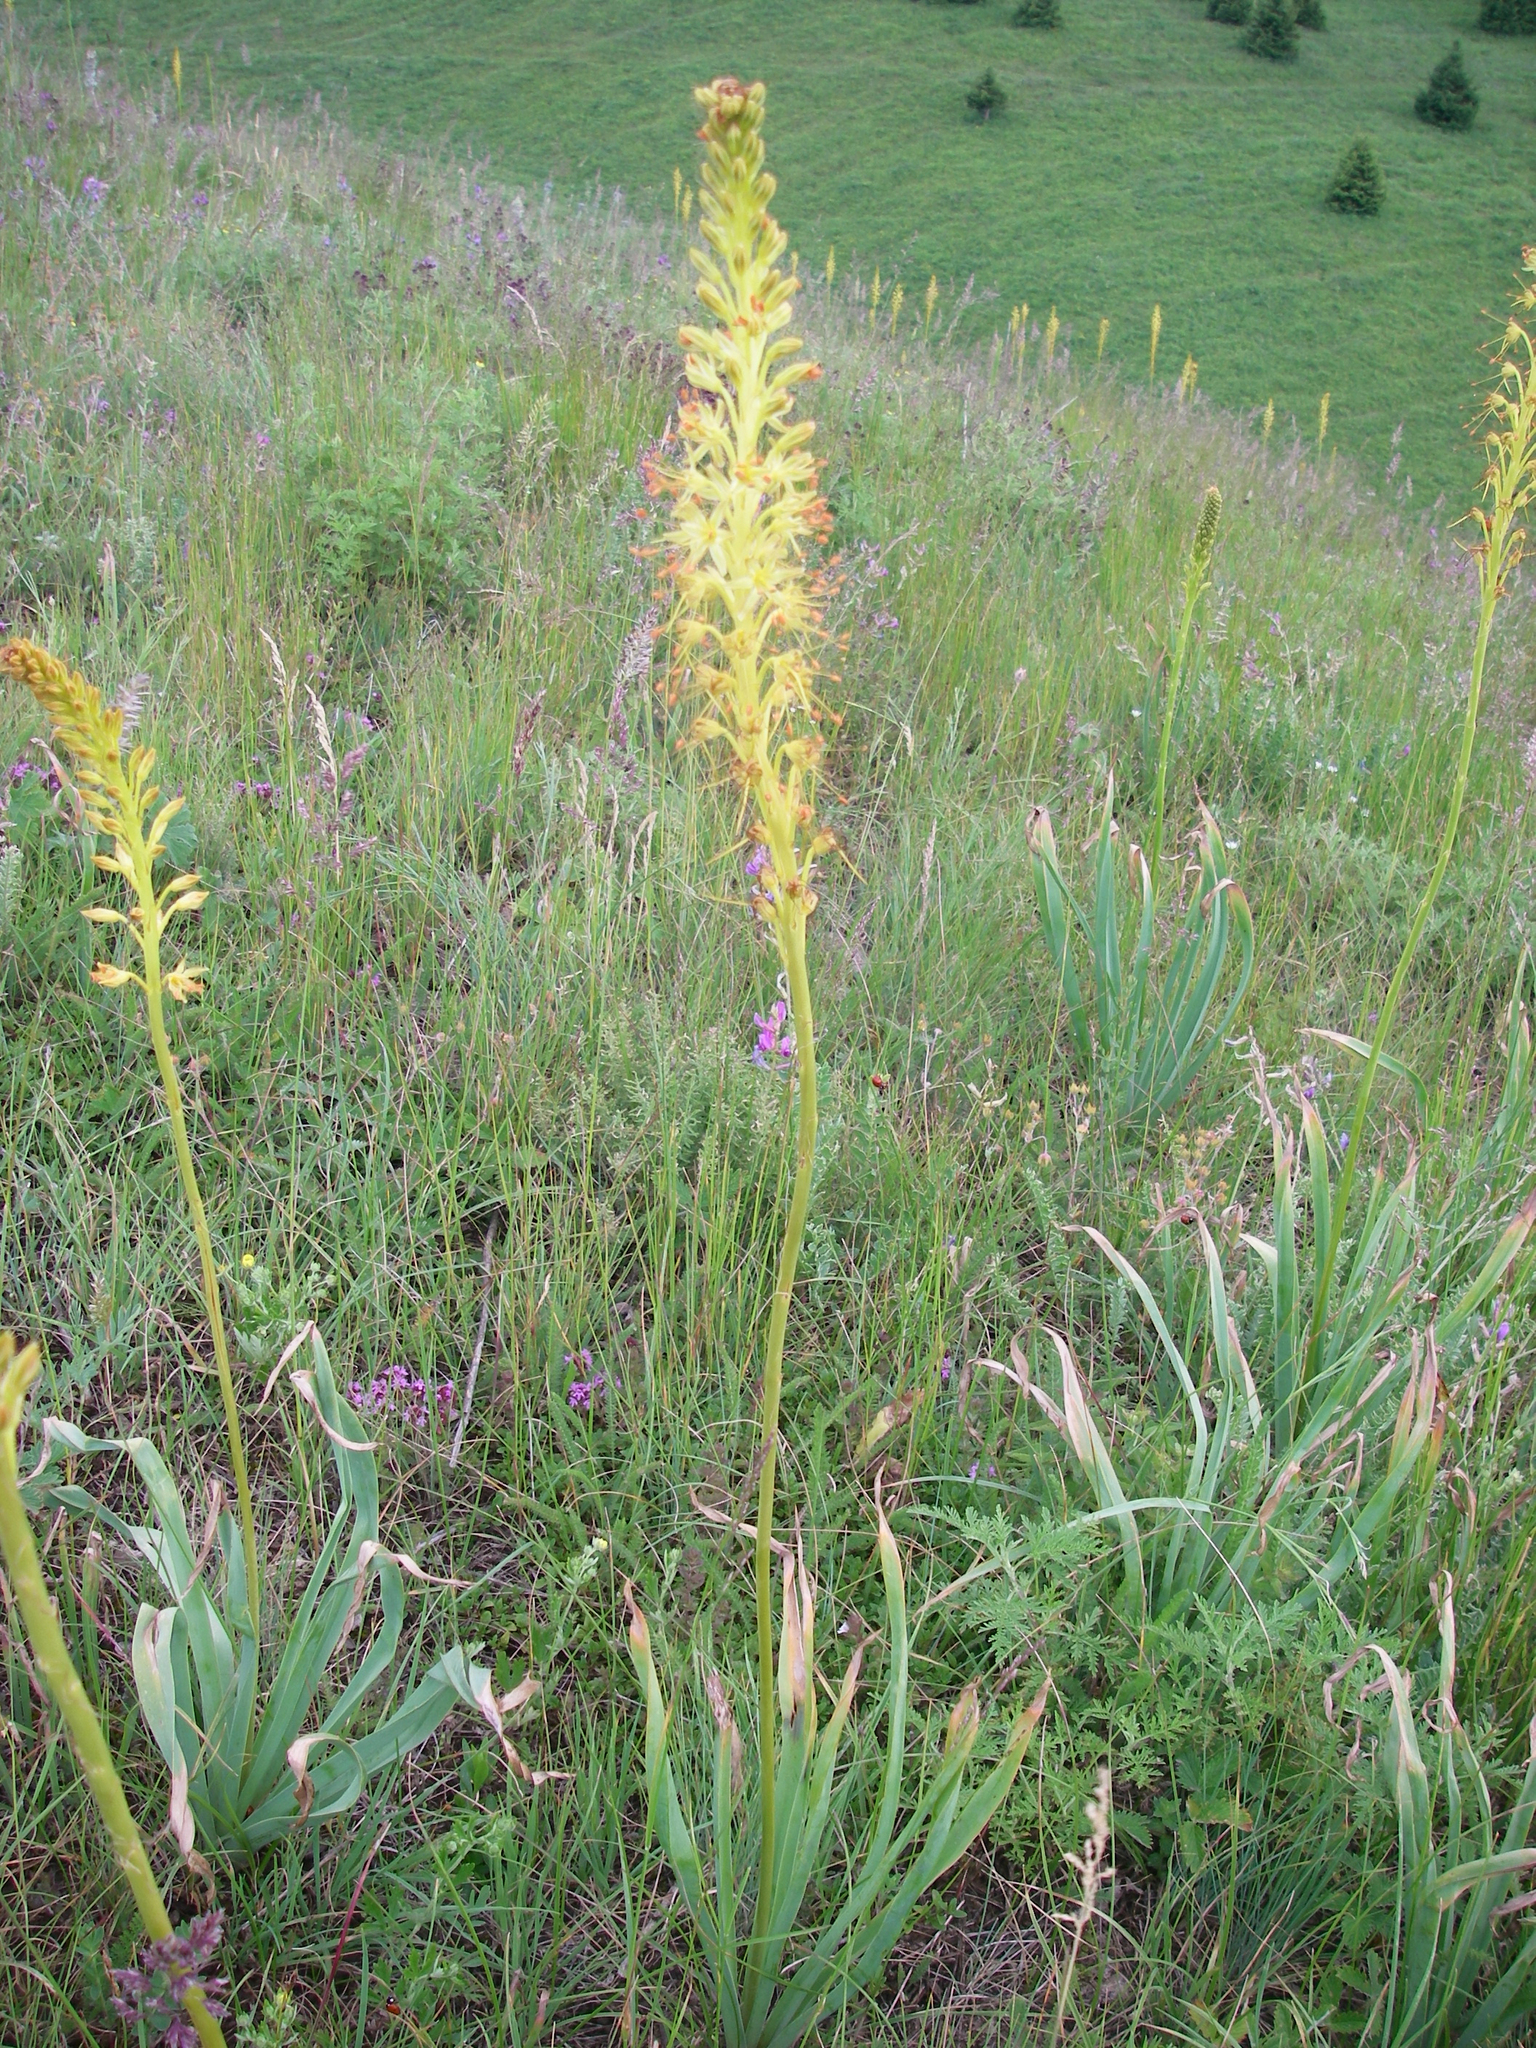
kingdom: Plantae
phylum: Tracheophyta
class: Liliopsida
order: Asparagales
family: Asphodelaceae
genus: Eremurus
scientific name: Eremurus fuscus
